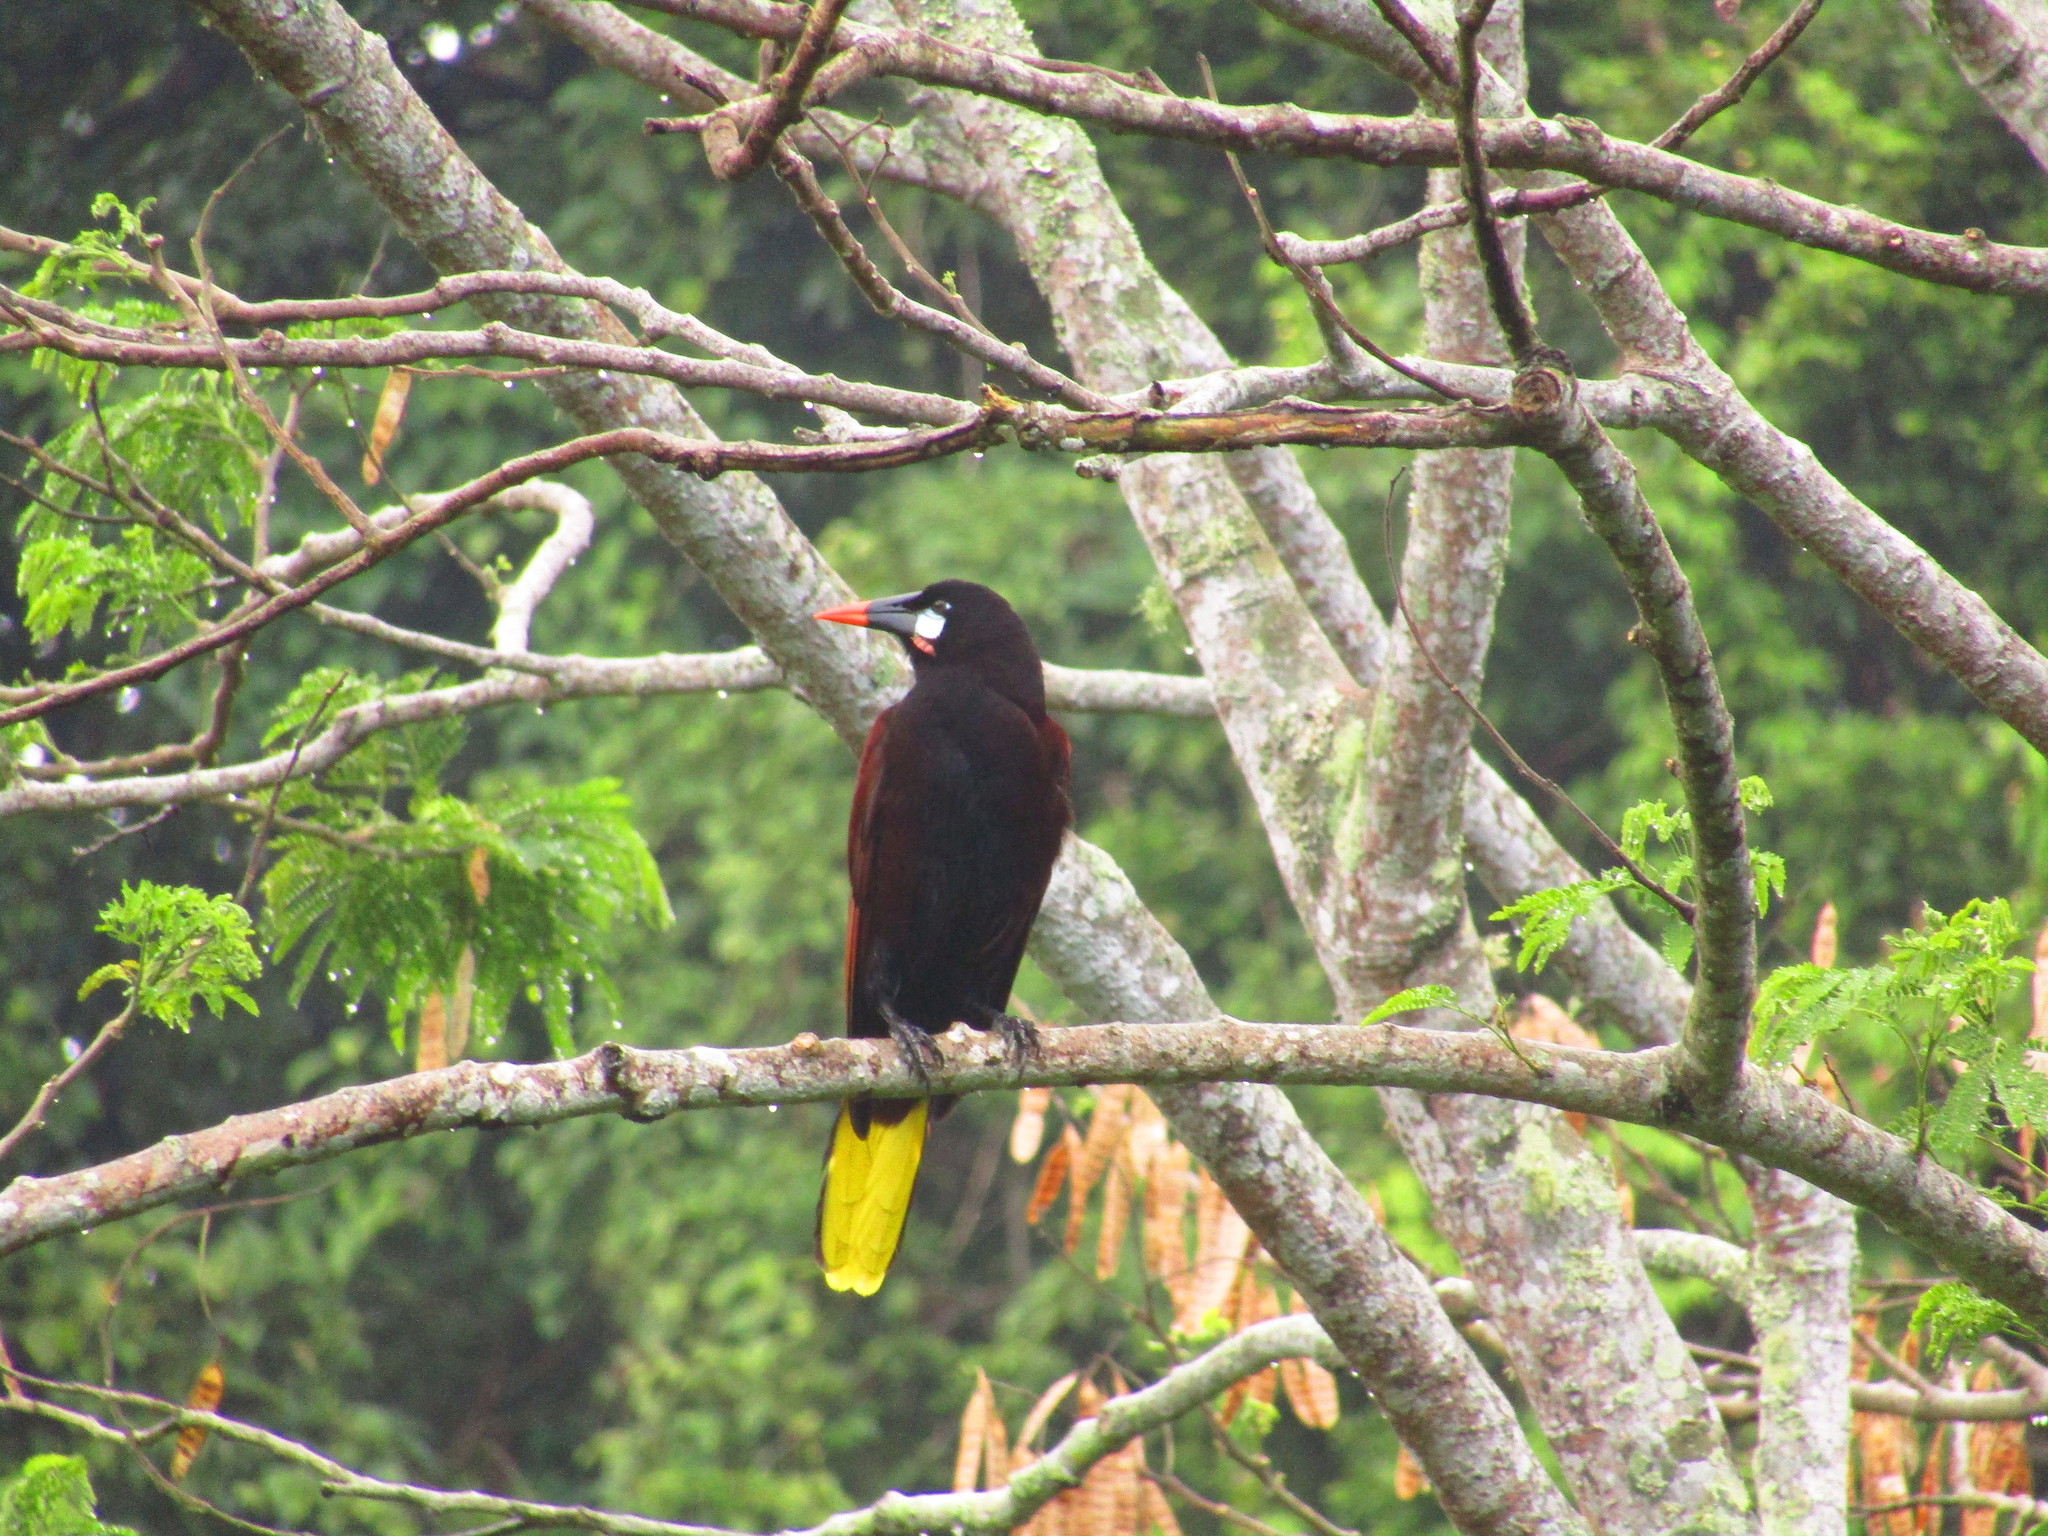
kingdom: Animalia
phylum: Chordata
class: Aves
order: Passeriformes
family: Icteridae
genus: Psarocolius
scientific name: Psarocolius montezuma
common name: Montezuma oropendola
